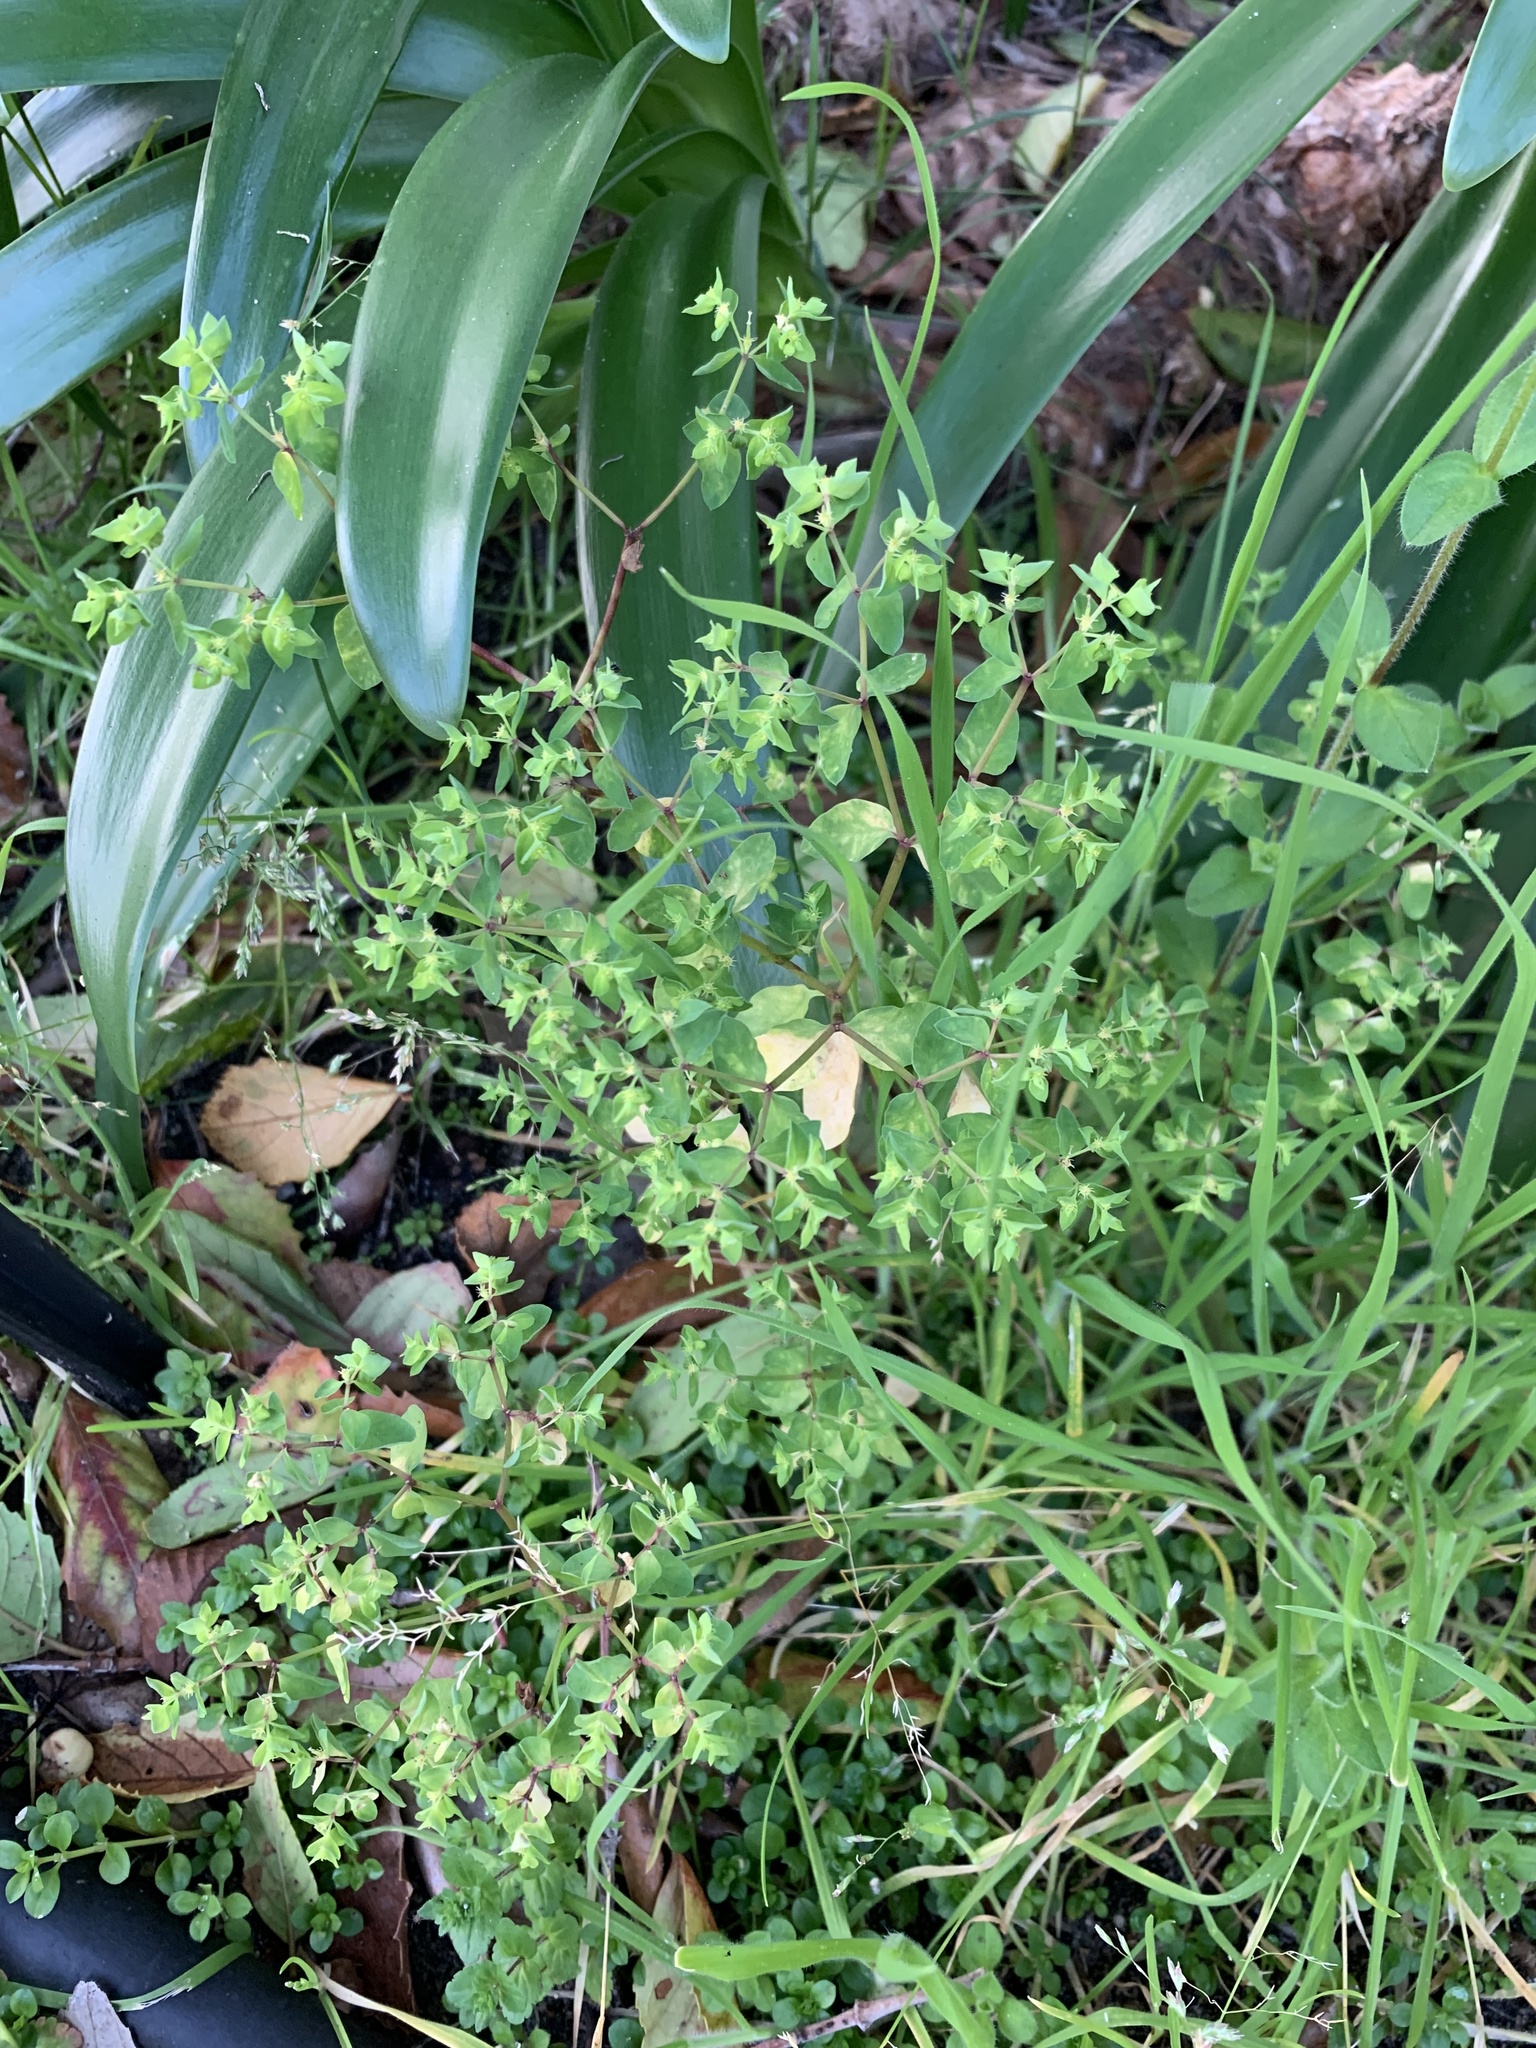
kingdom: Plantae
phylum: Tracheophyta
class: Magnoliopsida
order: Malpighiales
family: Euphorbiaceae
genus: Euphorbia
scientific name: Euphorbia peplus
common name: Petty spurge
